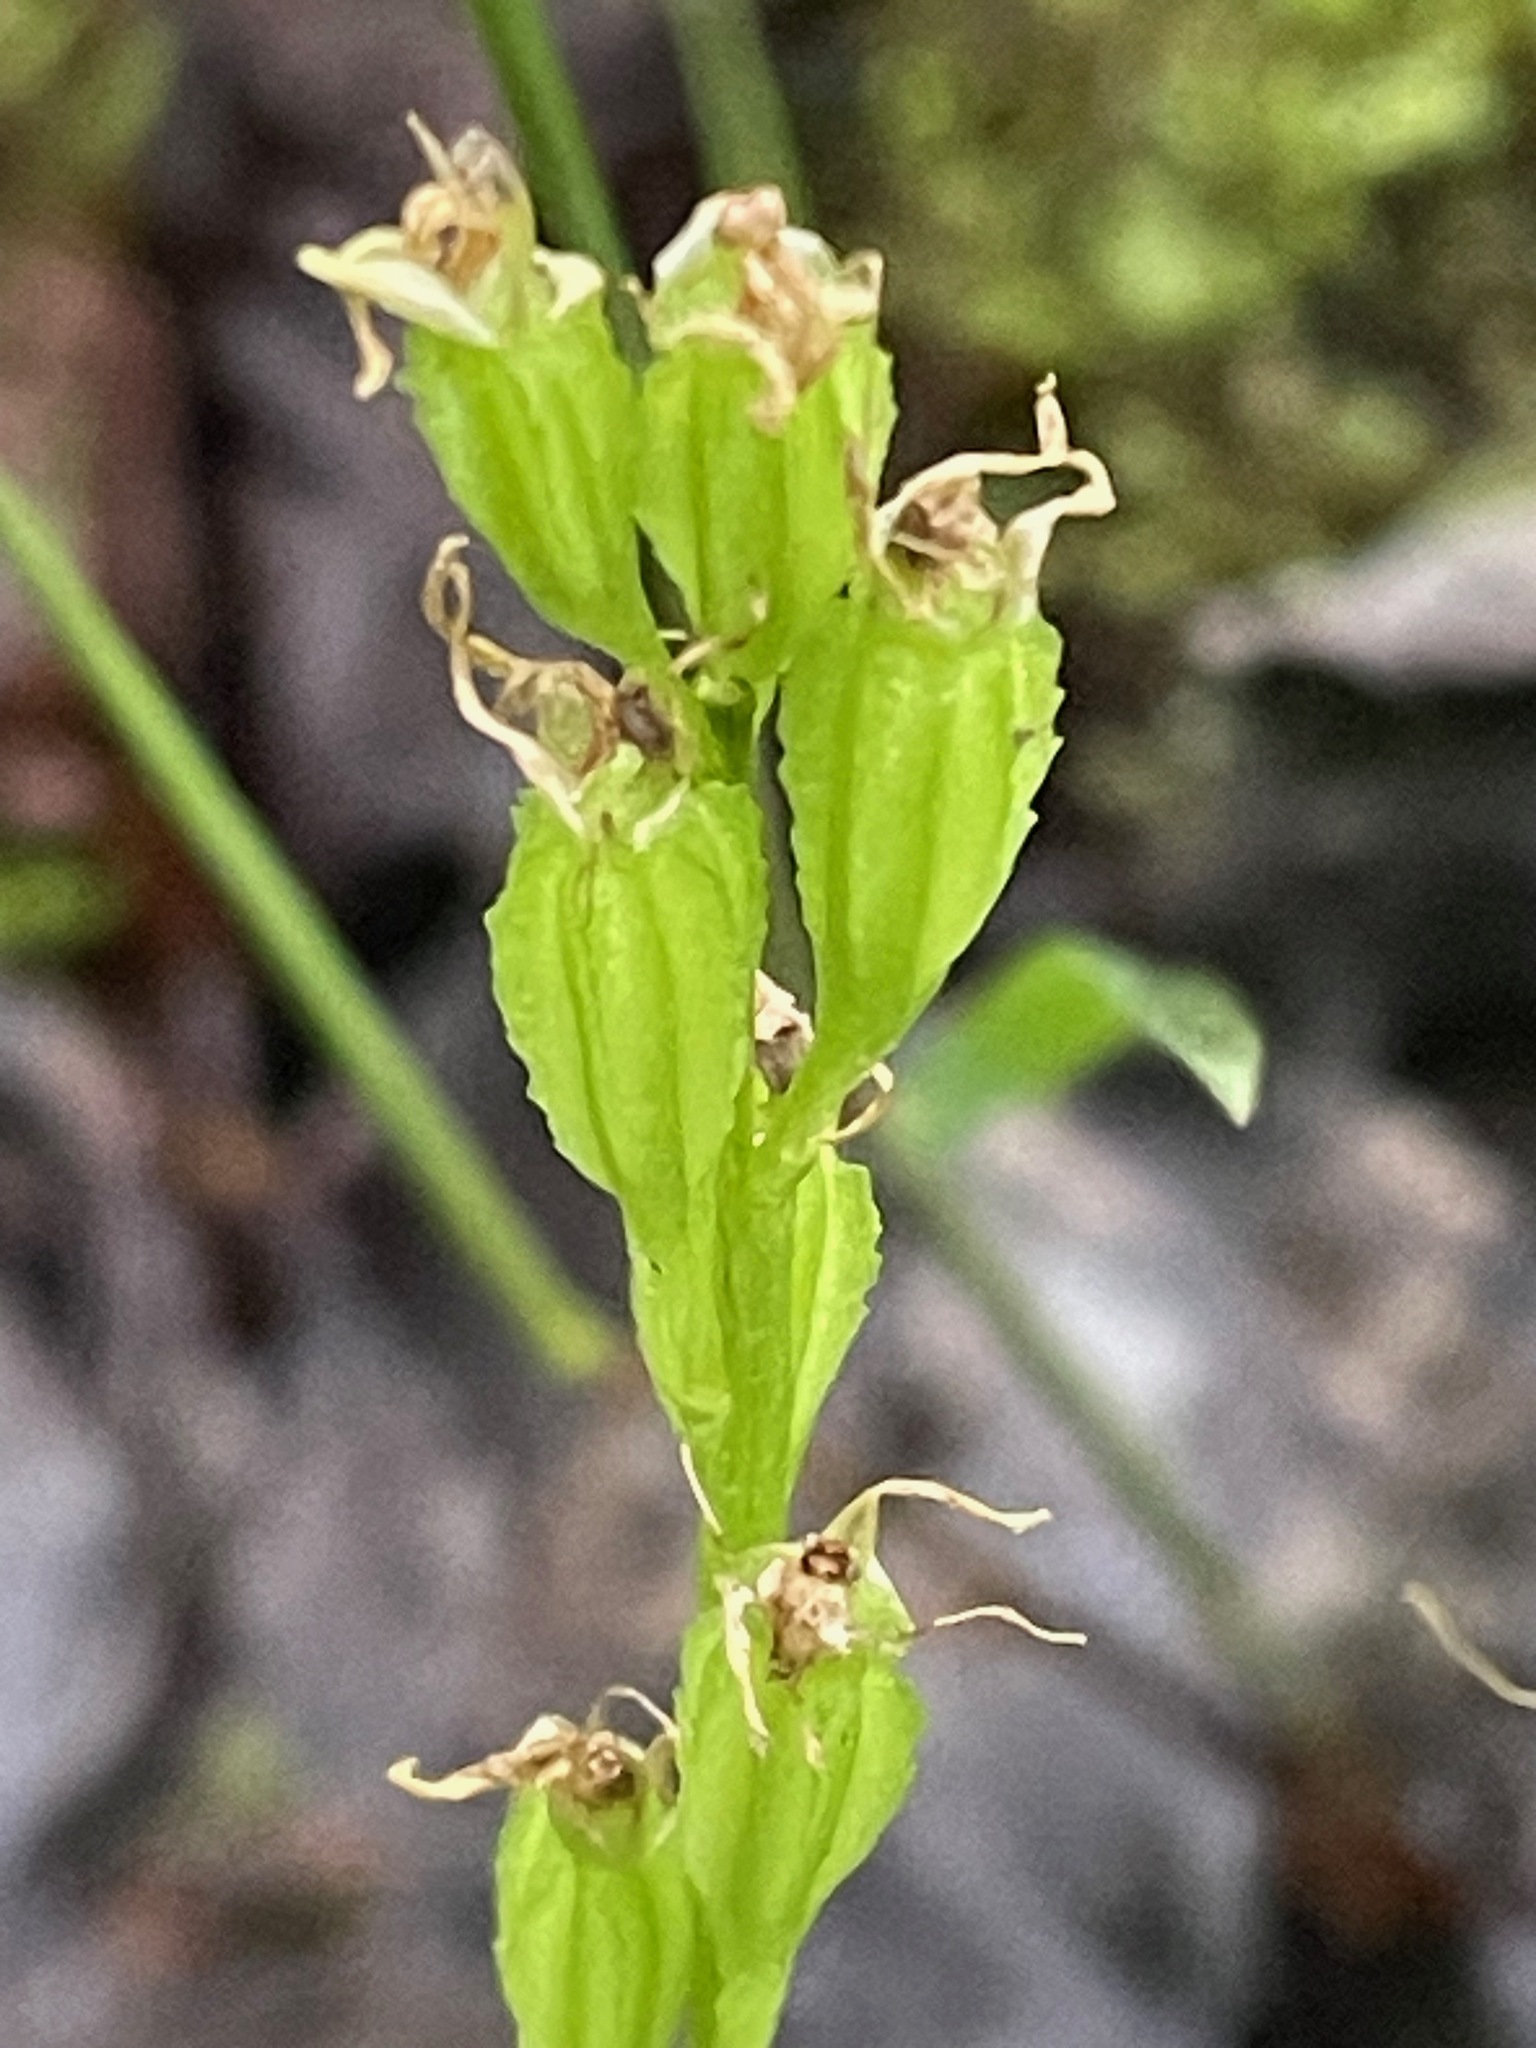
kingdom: Animalia
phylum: Arthropoda
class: Insecta
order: Coleoptera
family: Curculionidae
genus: Liparis
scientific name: Liparis loeselii
